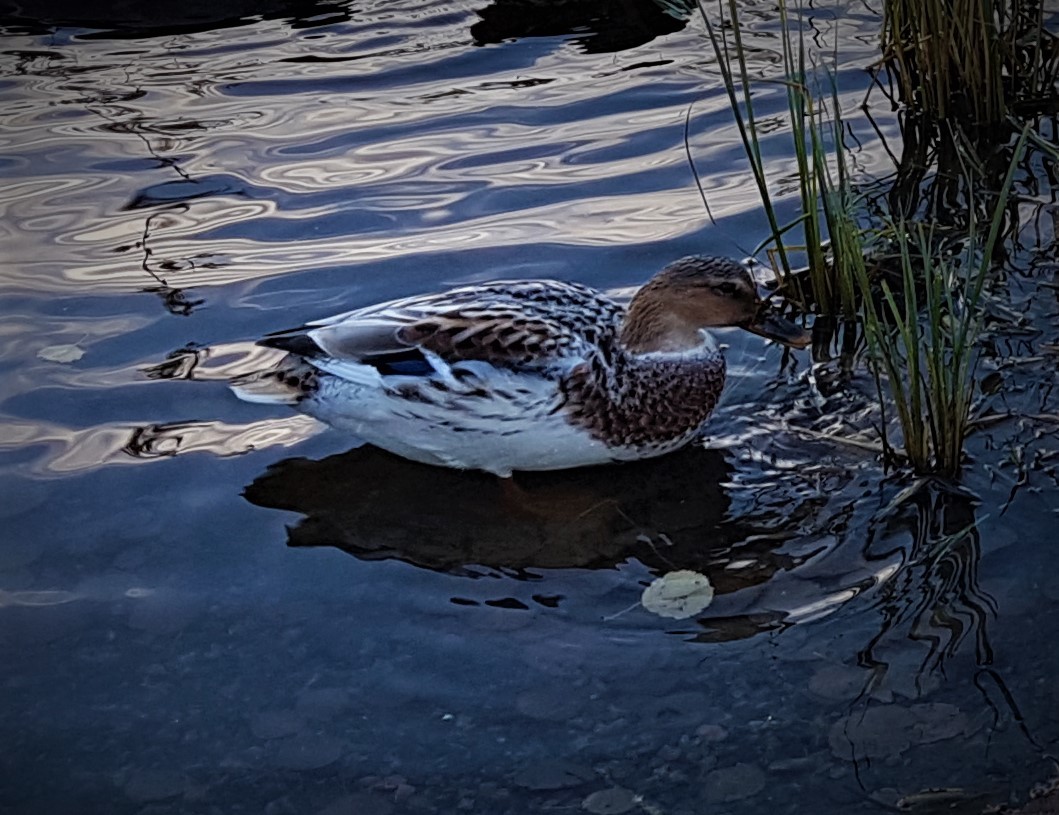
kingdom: Animalia
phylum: Chordata
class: Aves
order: Anseriformes
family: Anatidae
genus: Anas
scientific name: Anas platyrhynchos
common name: Mallard
